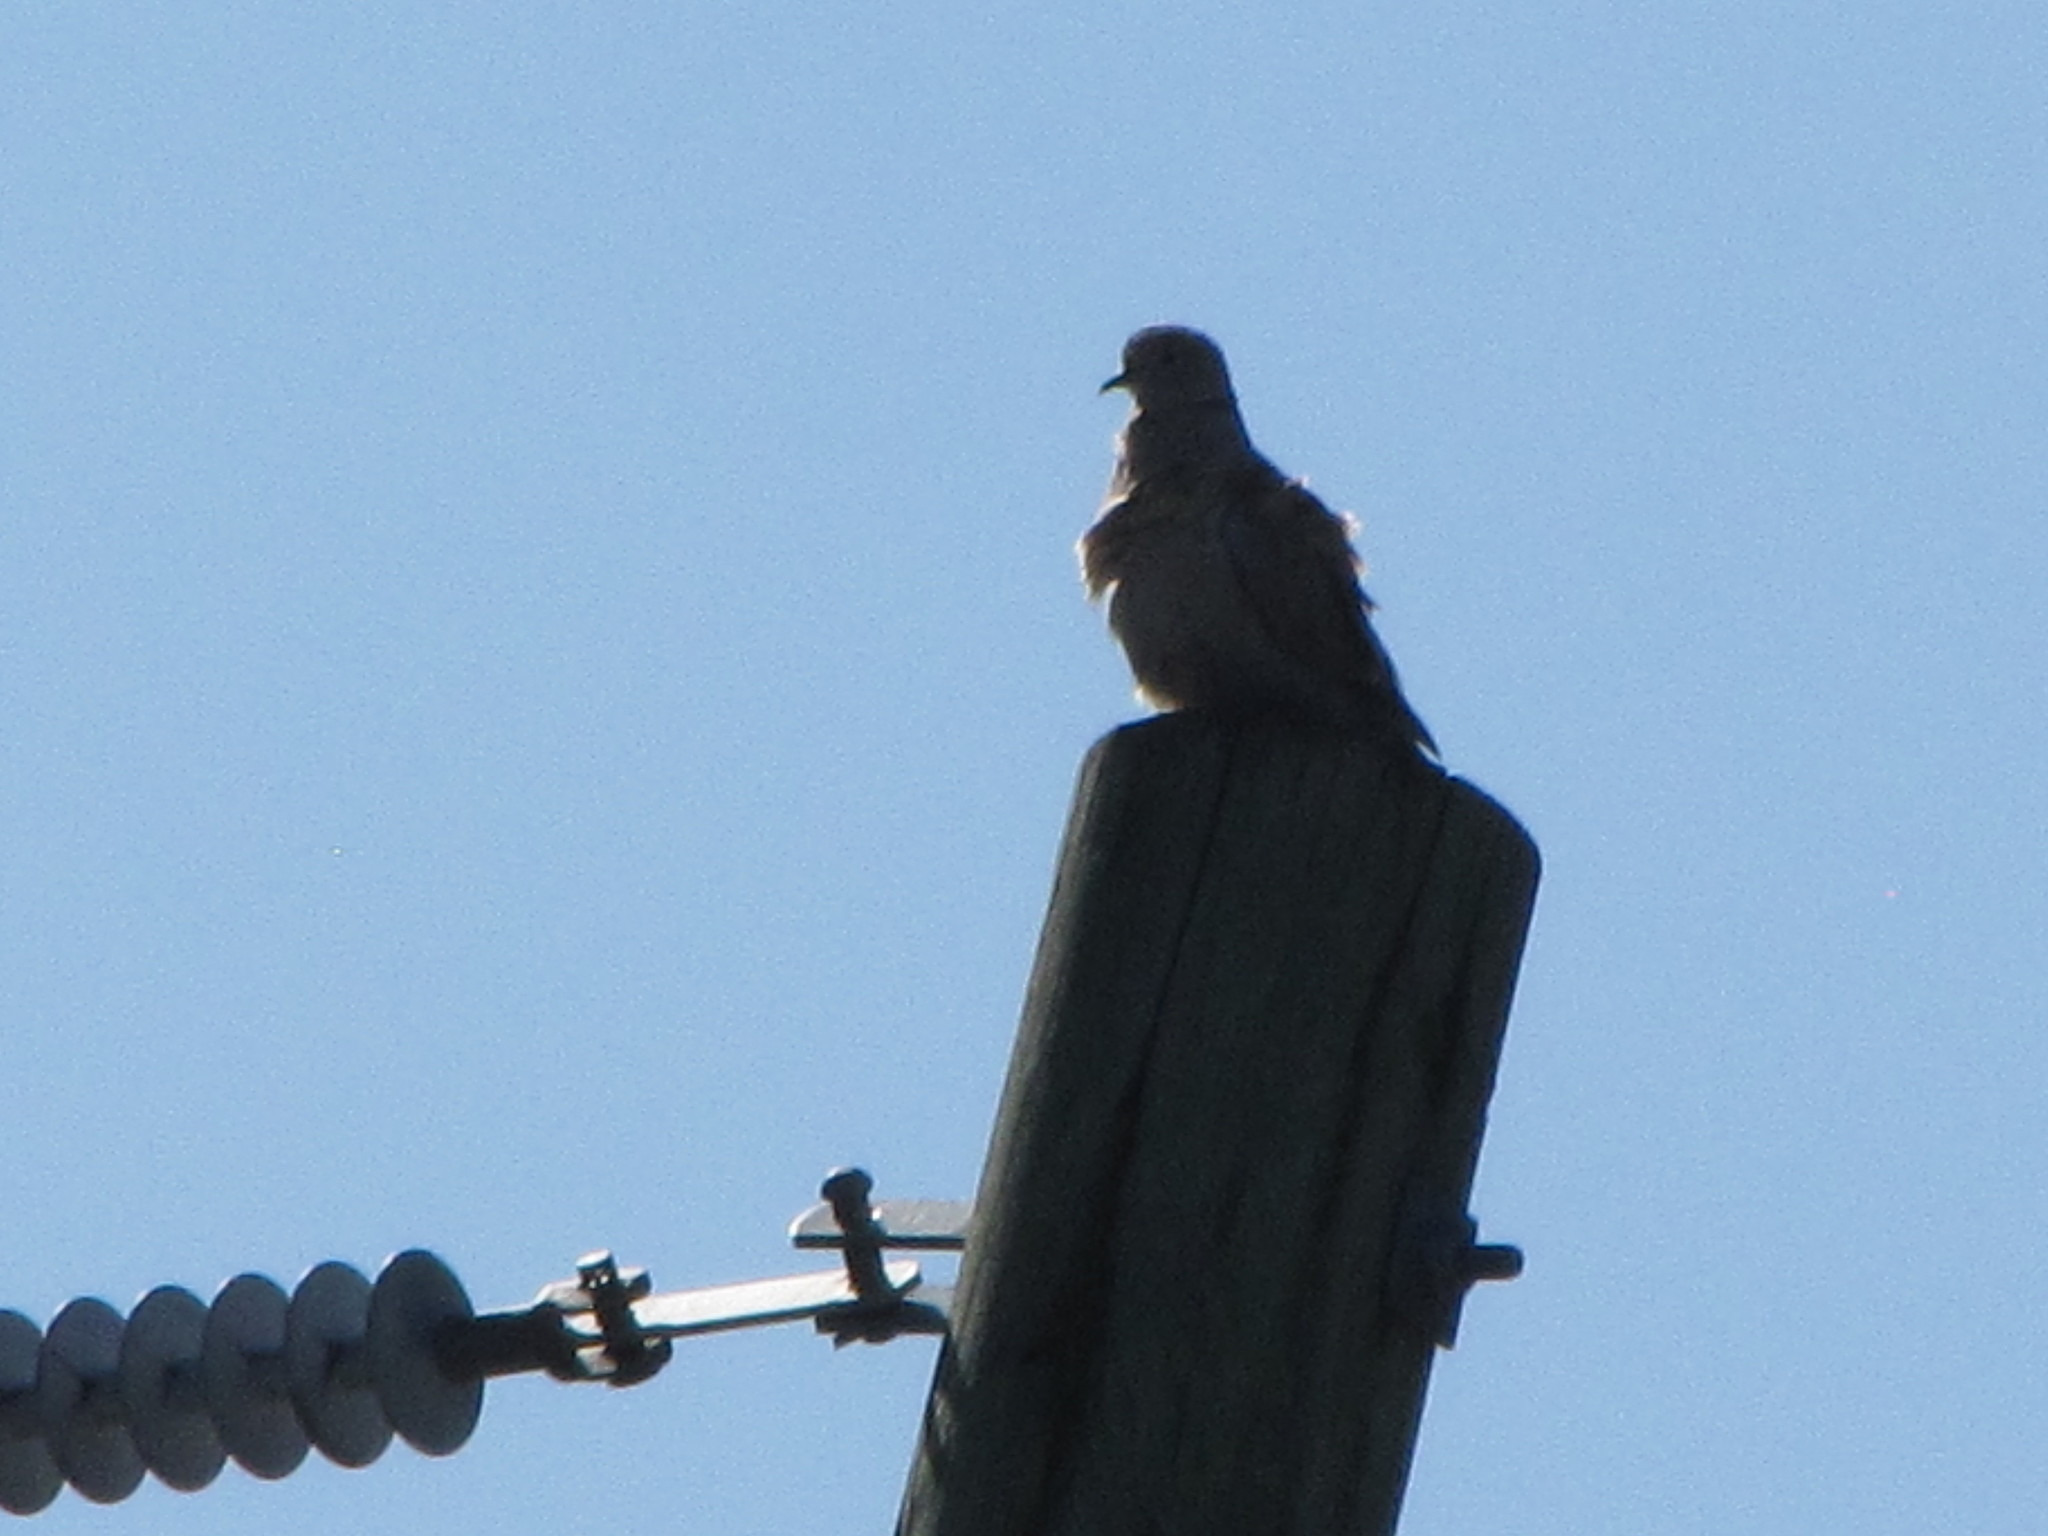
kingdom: Animalia
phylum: Chordata
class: Aves
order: Columbiformes
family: Columbidae
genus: Streptopelia
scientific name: Streptopelia decaocto
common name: Eurasian collared dove
